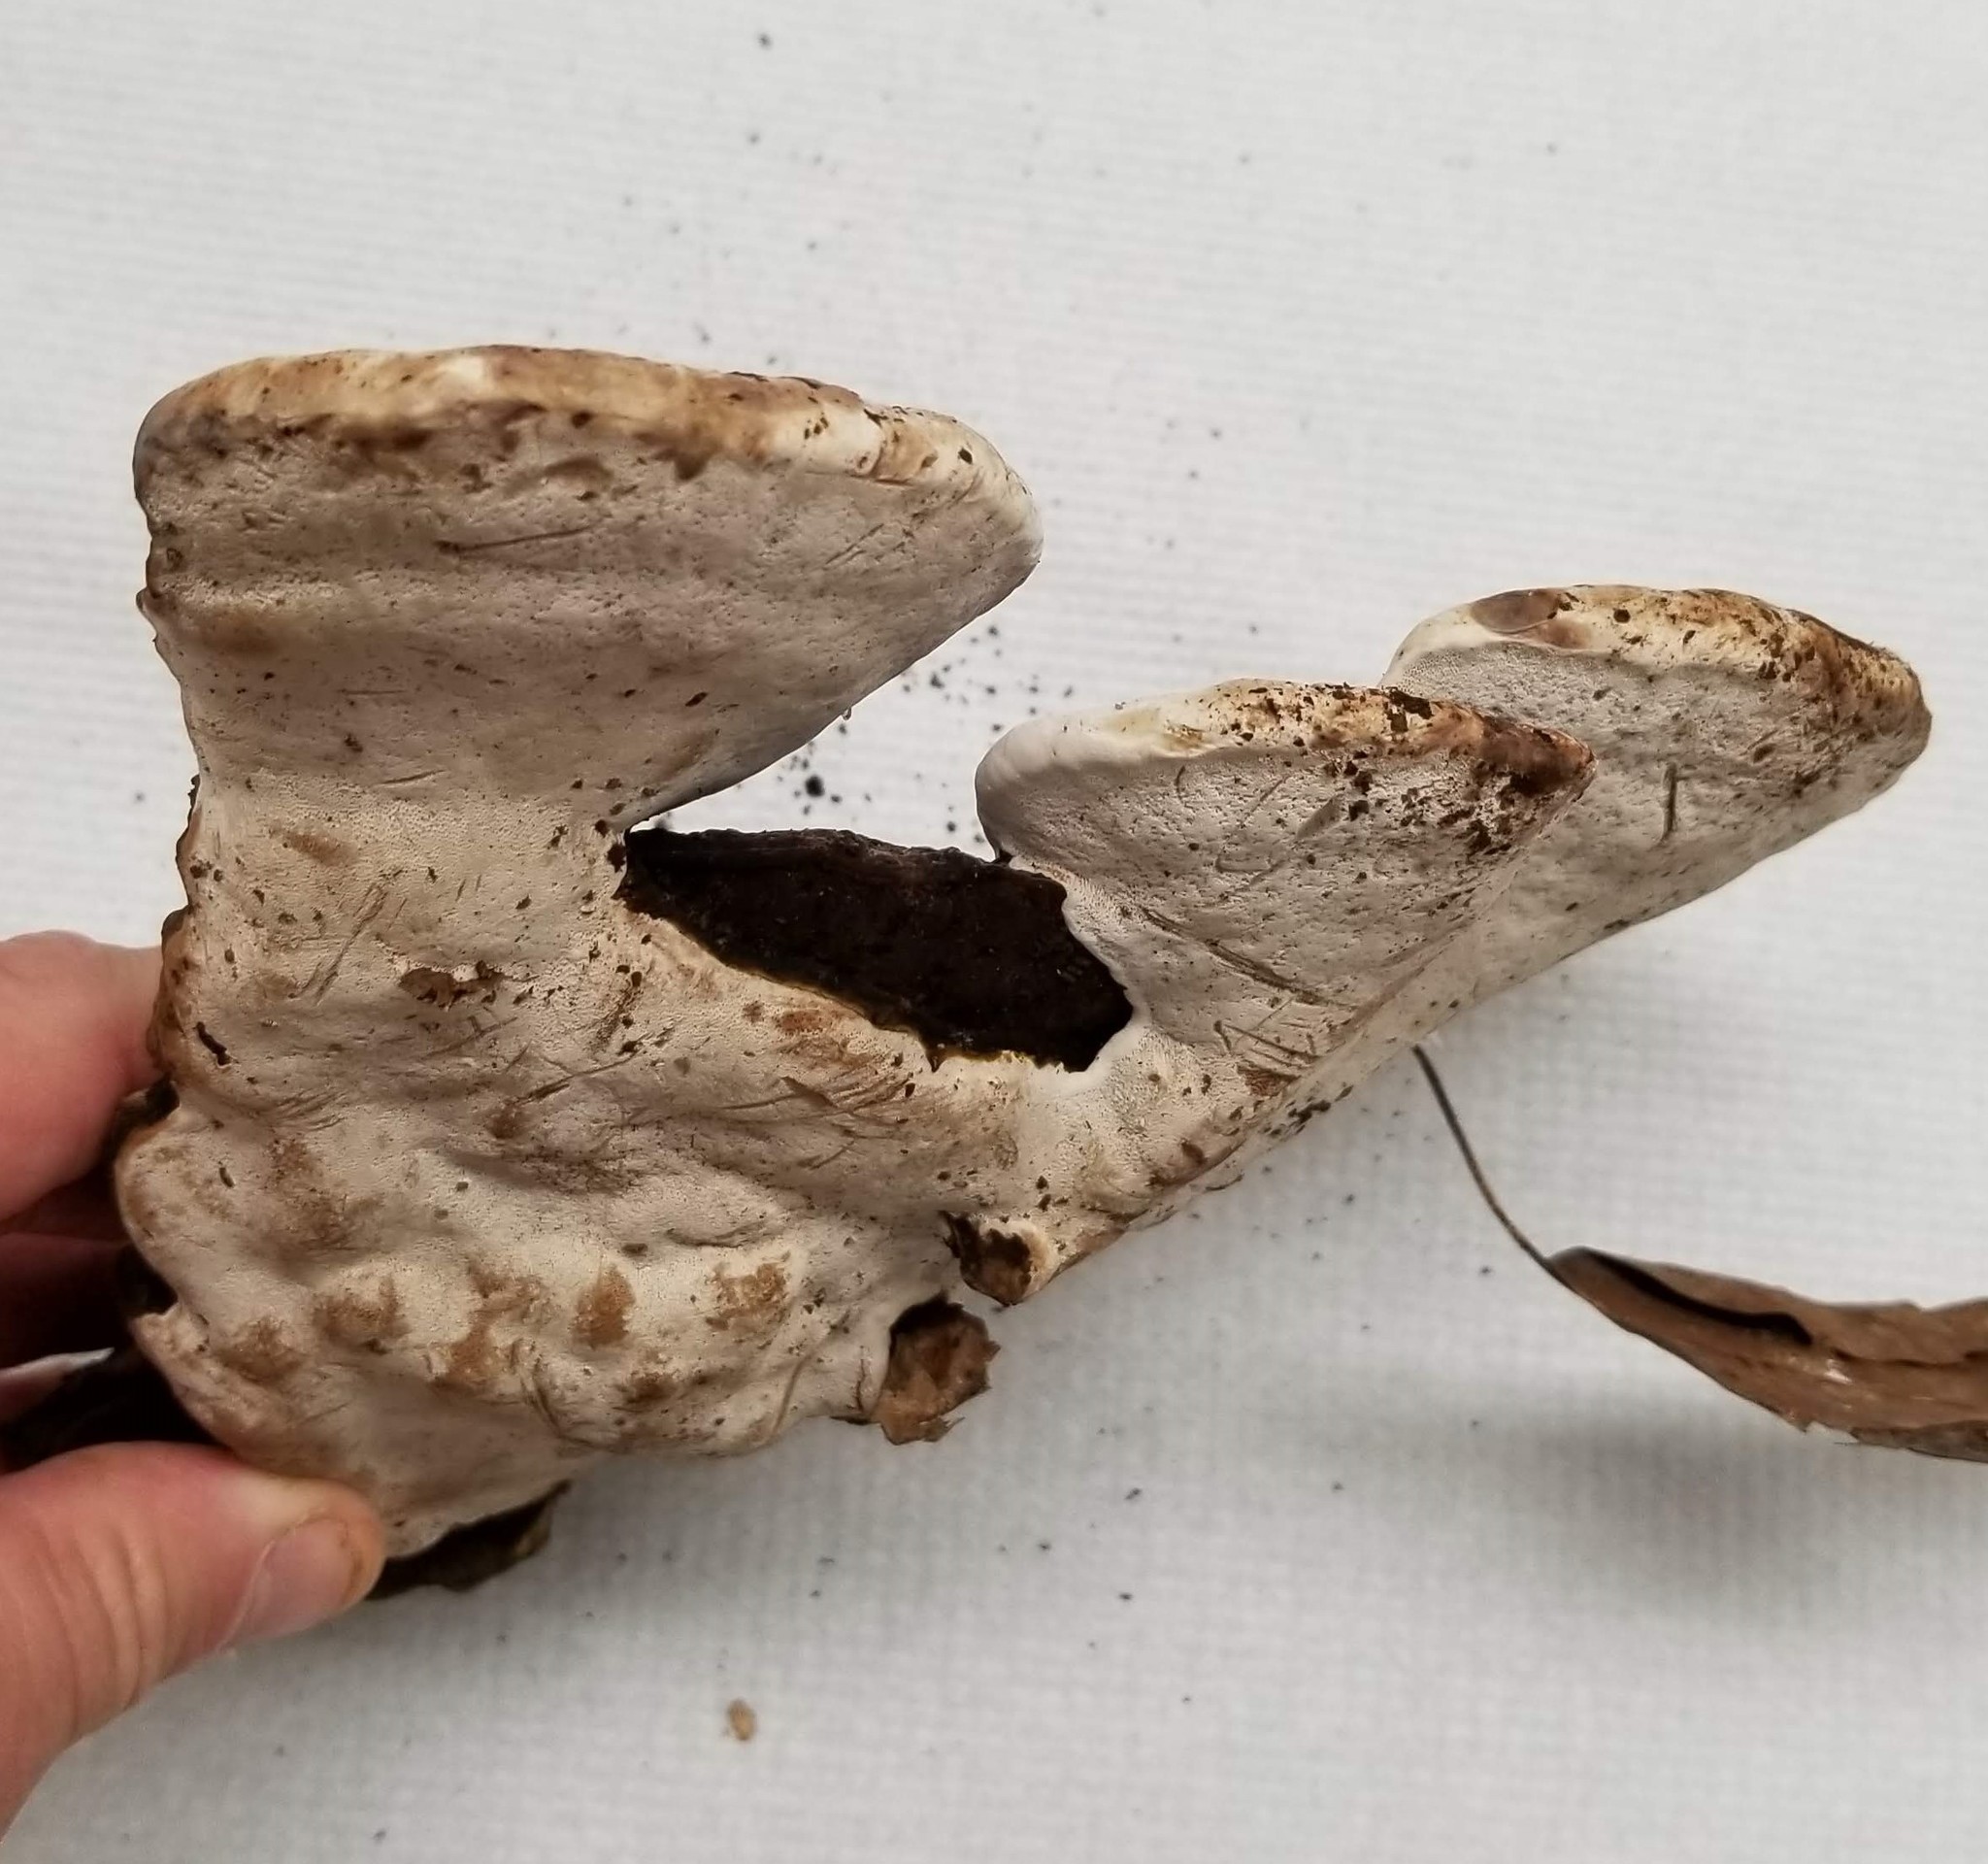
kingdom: Fungi
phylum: Basidiomycota
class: Agaricomycetes
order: Polyporales
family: Polyporaceae
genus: Ganoderma
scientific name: Ganoderma lobatum
